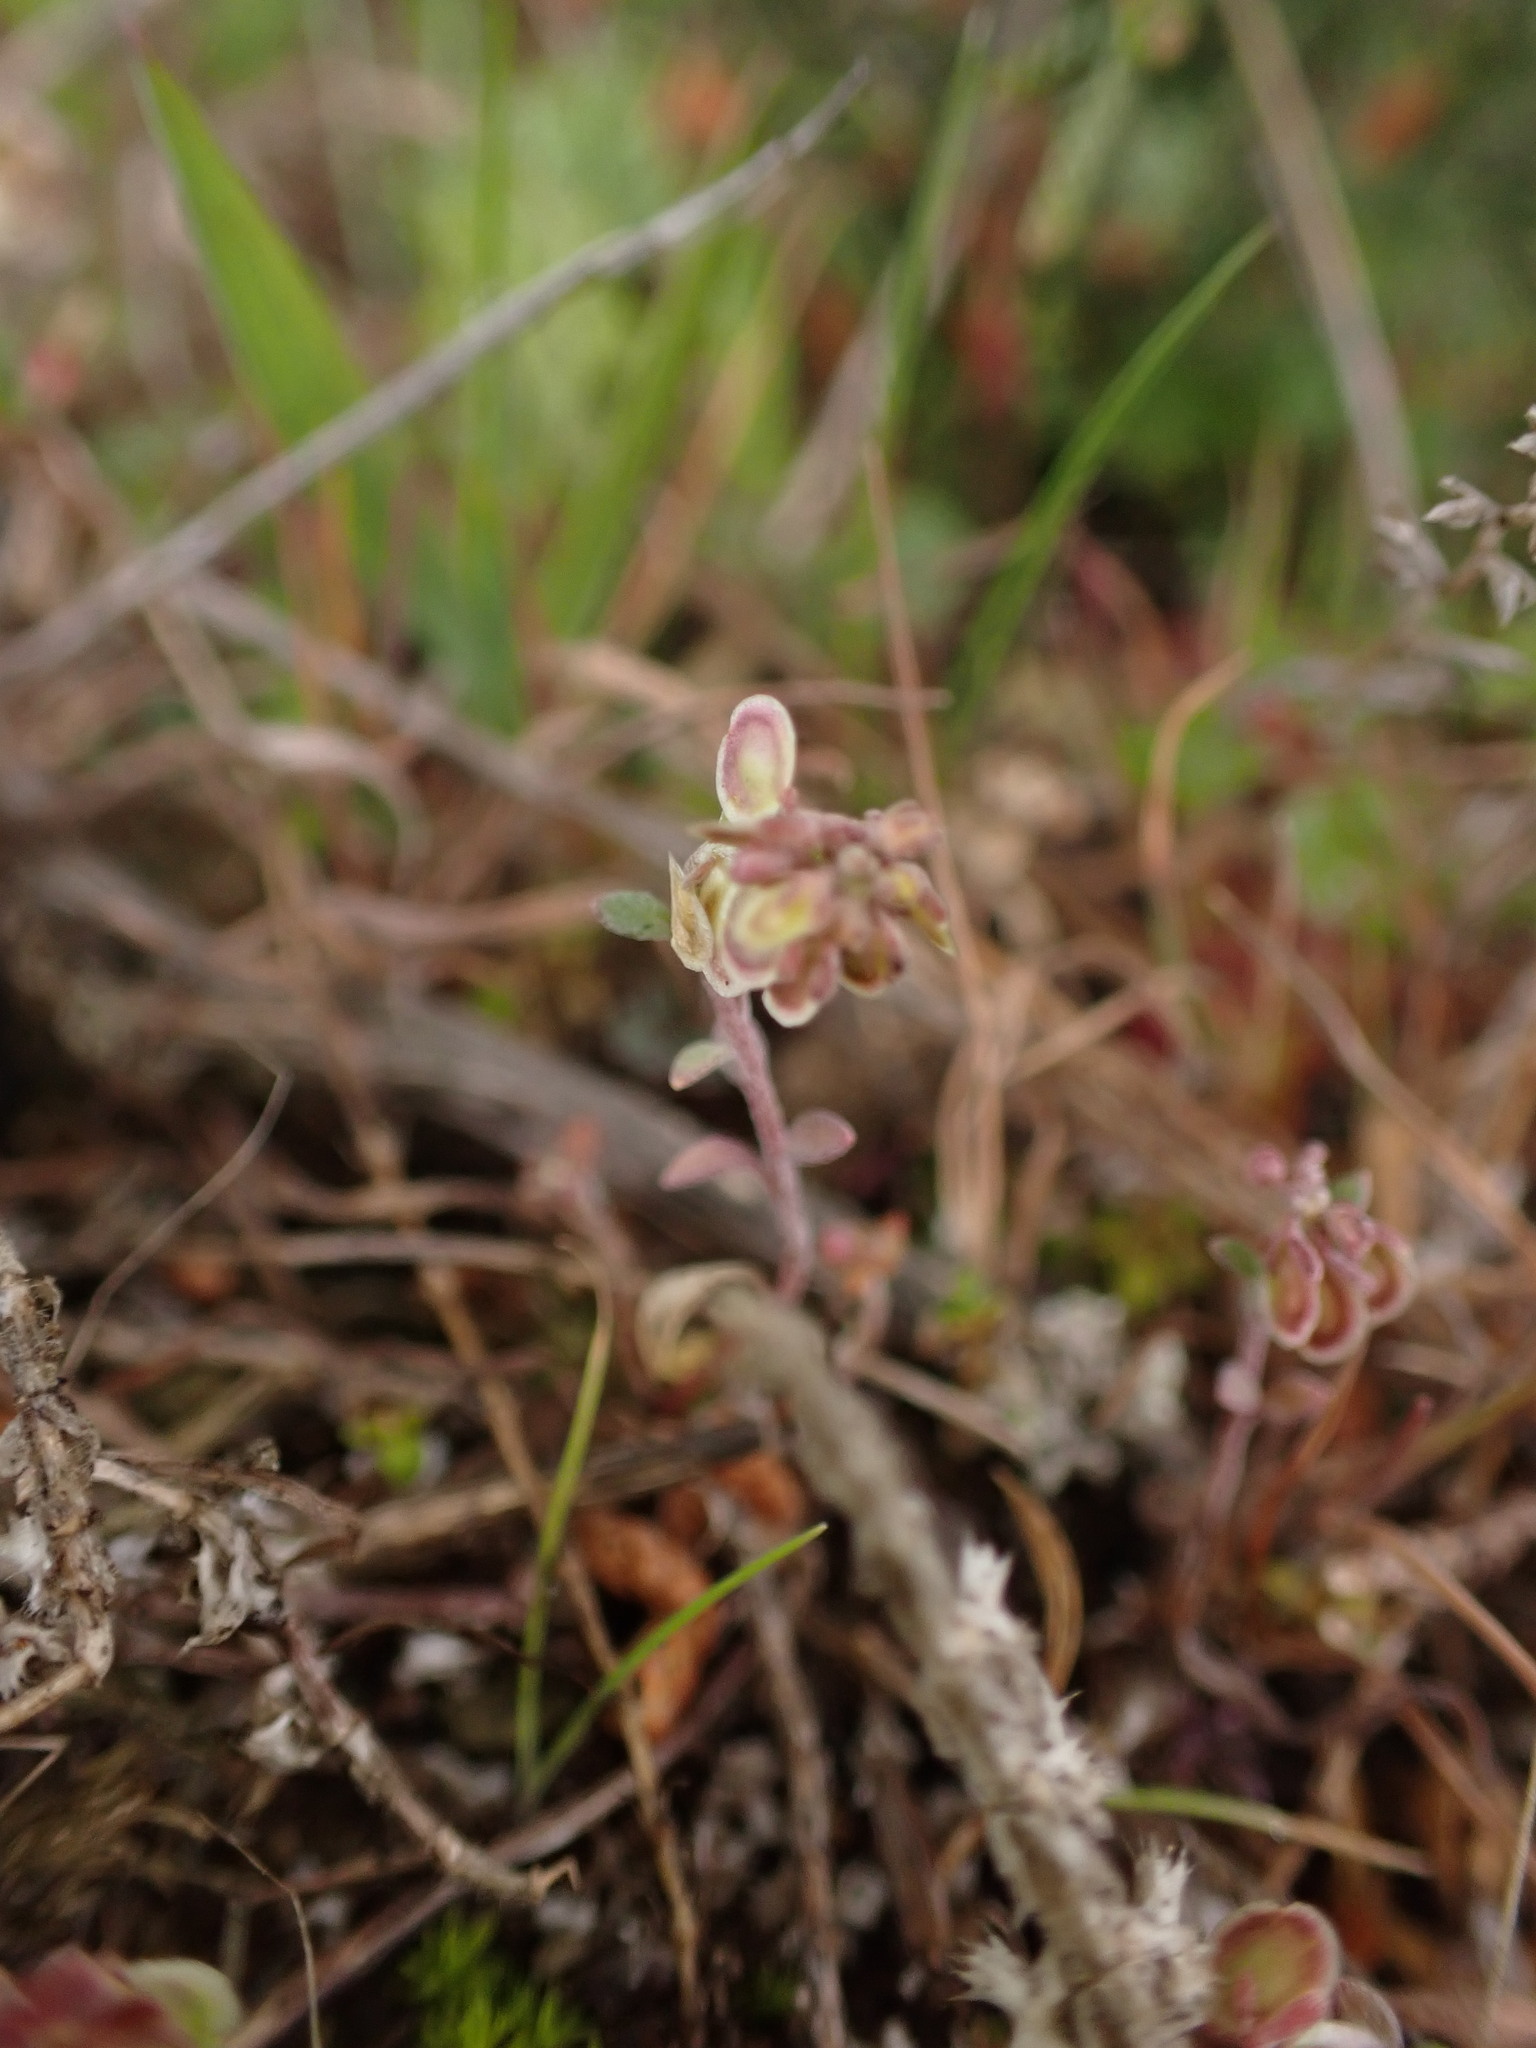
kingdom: Plantae
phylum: Tracheophyta
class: Magnoliopsida
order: Brassicales
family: Brassicaceae
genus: Clypeola
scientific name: Clypeola jonthlaspi
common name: Disk cress
